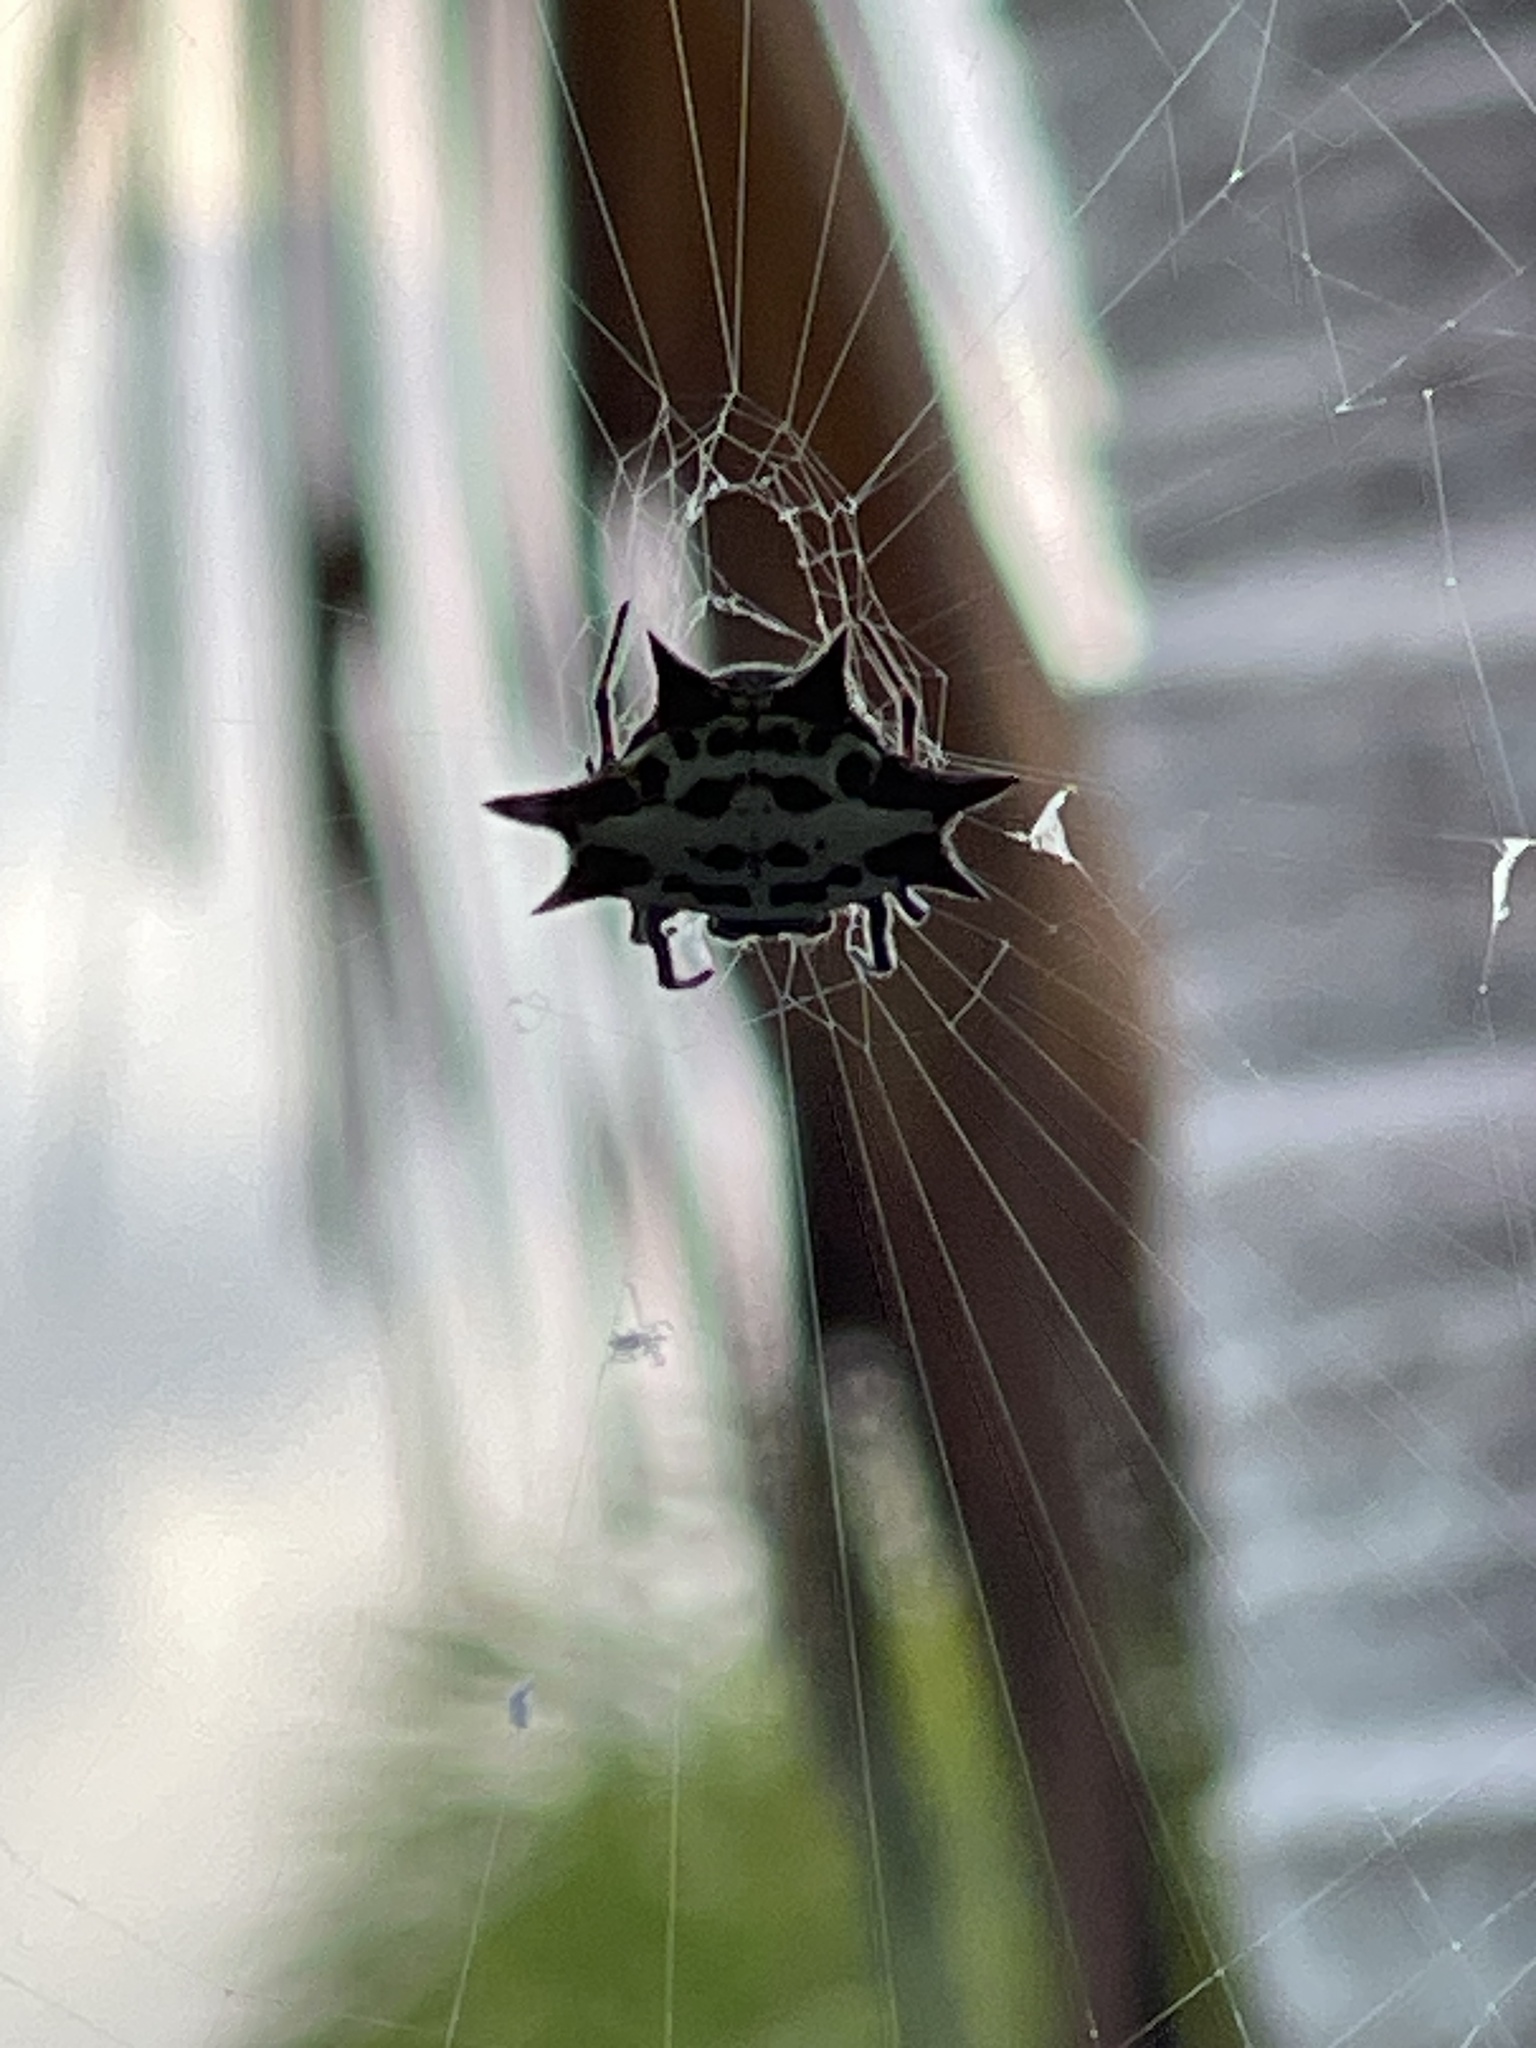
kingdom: Animalia
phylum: Arthropoda
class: Arachnida
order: Araneae
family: Araneidae
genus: Gasteracantha
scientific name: Gasteracantha cancriformis
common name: Orb weavers
